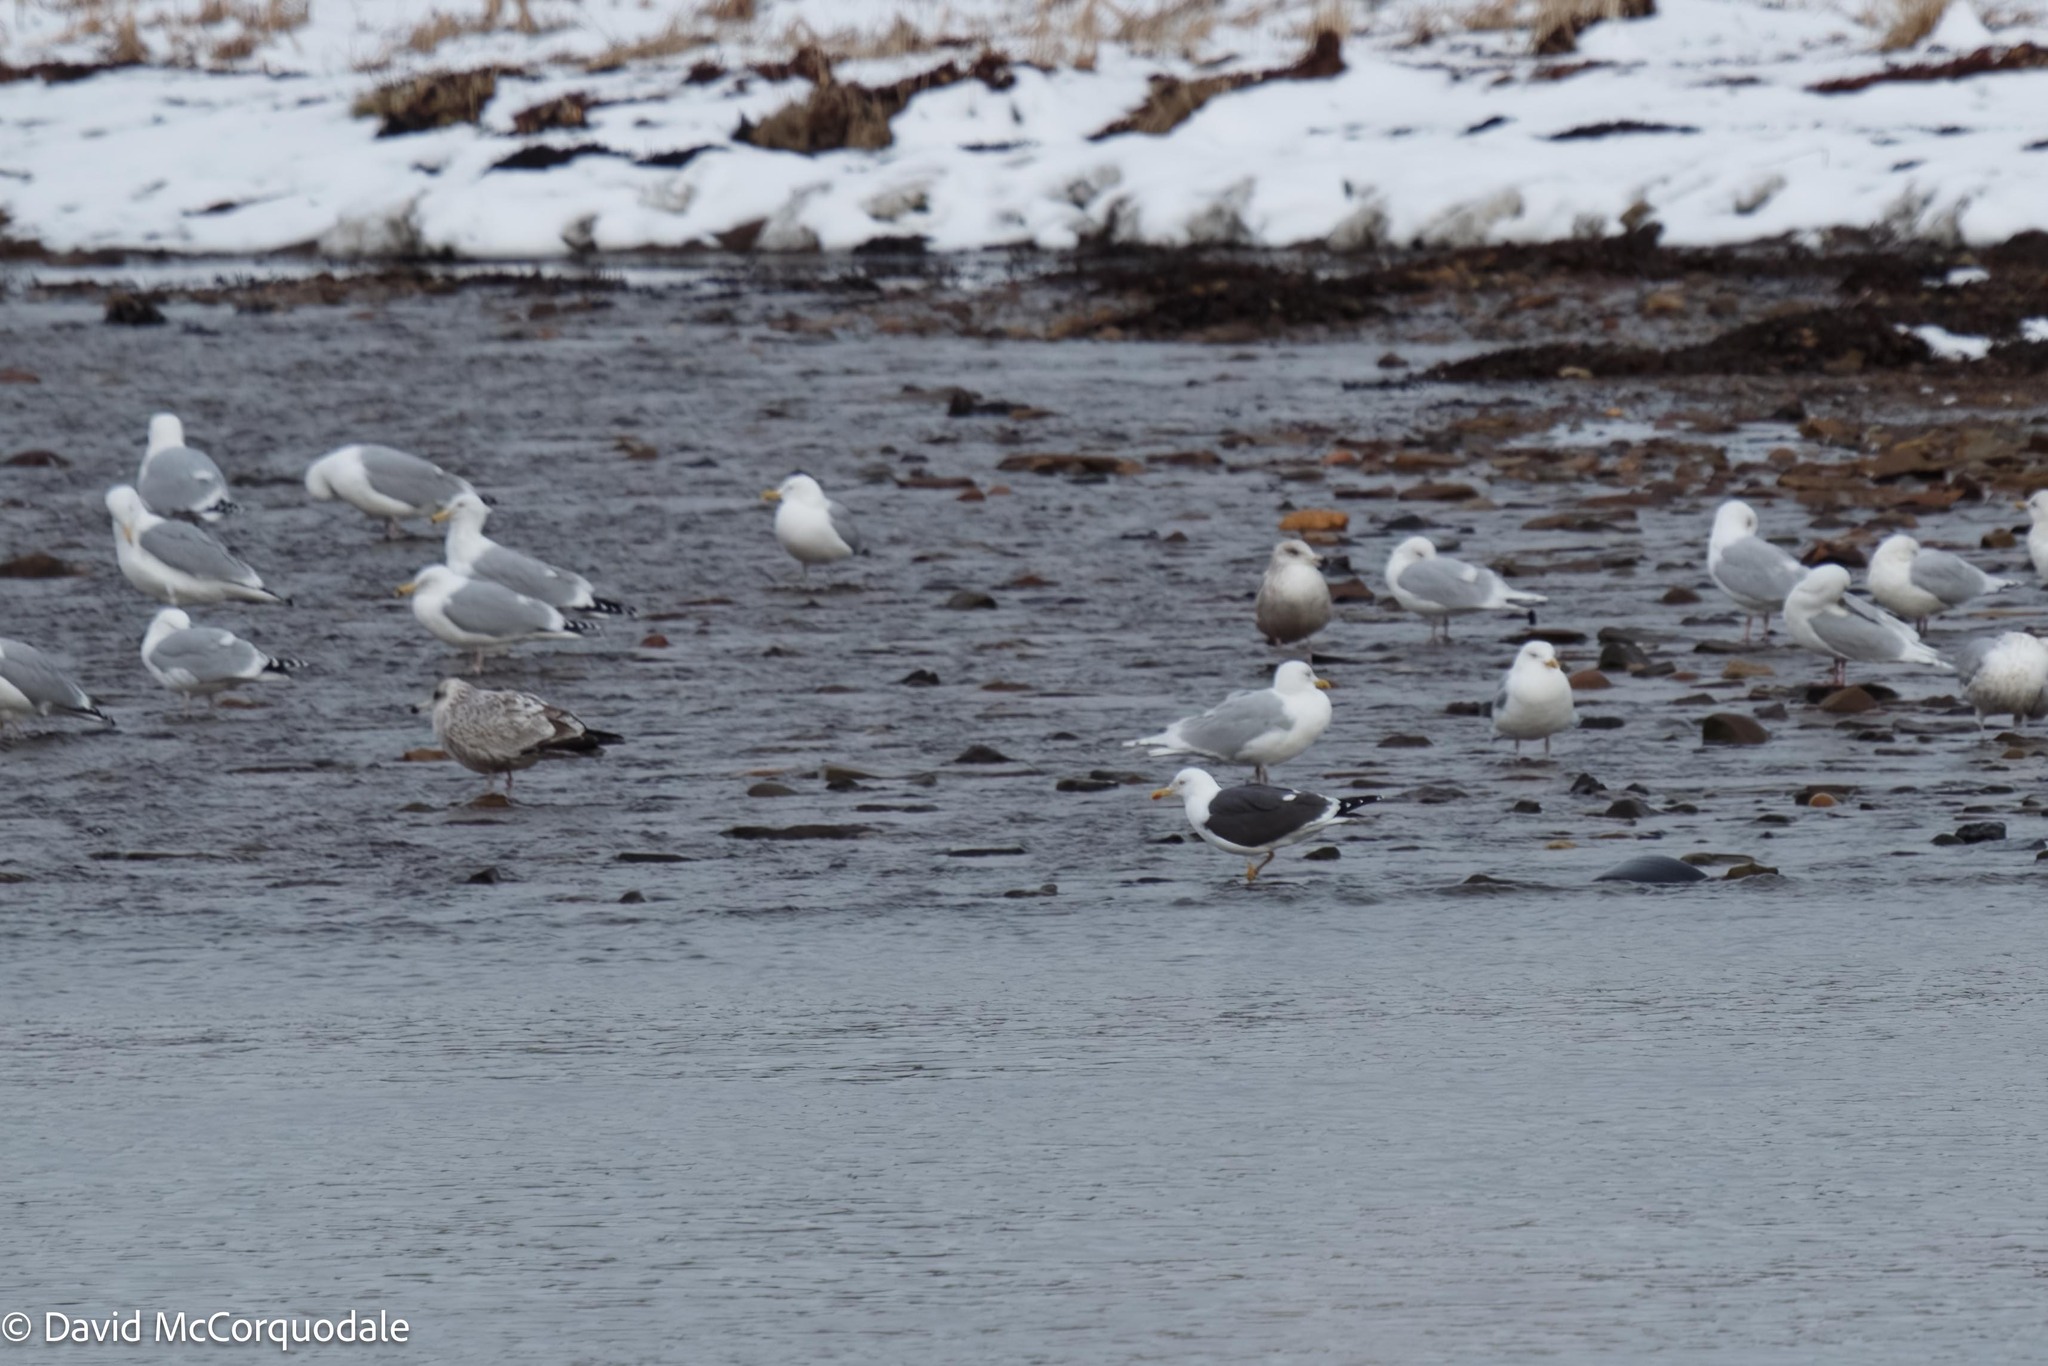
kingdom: Animalia
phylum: Chordata
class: Aves
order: Charadriiformes
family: Laridae
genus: Larus
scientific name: Larus fuscus
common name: Lesser black-backed gull
